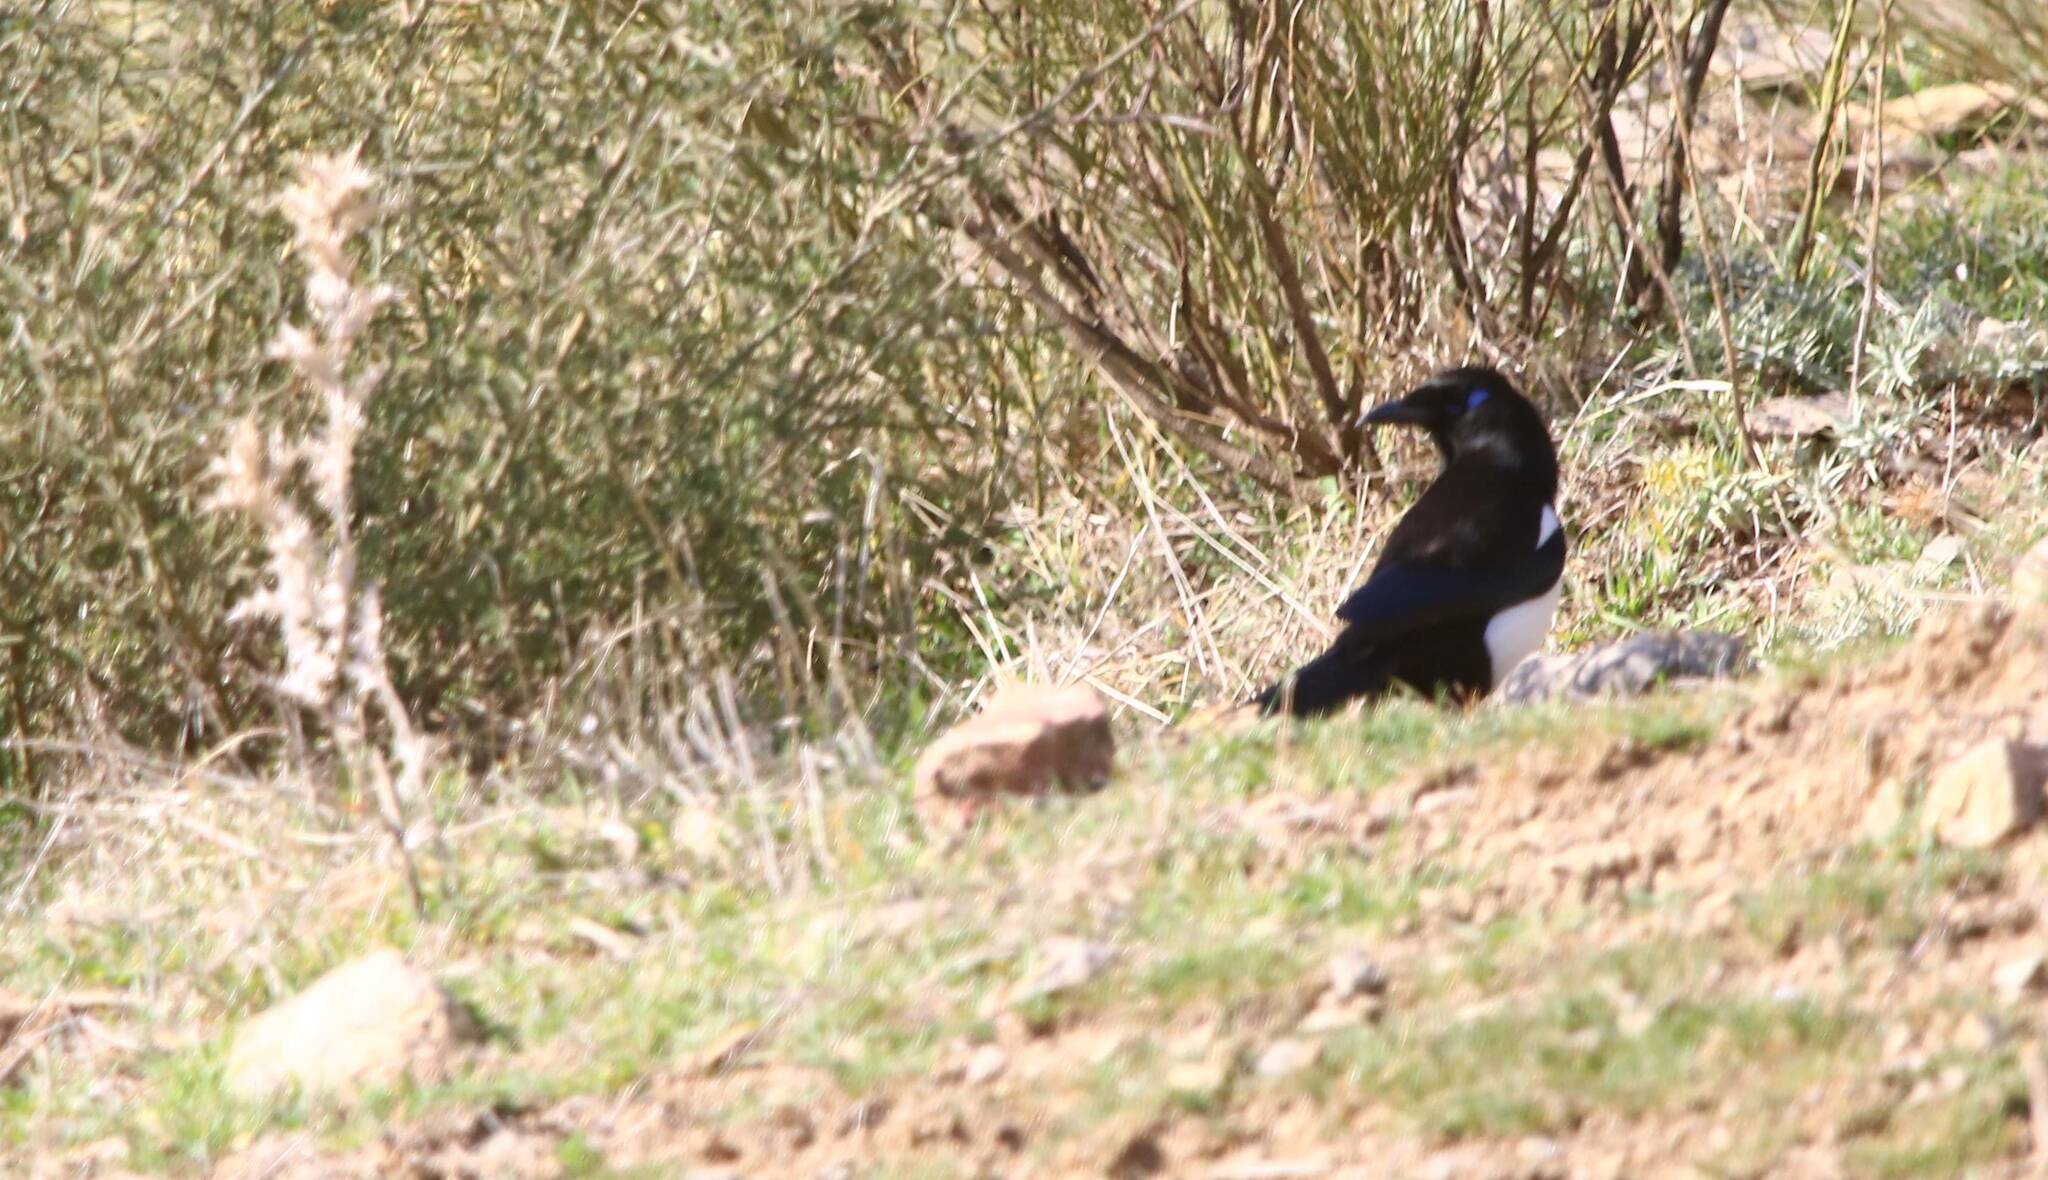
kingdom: Animalia
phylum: Chordata
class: Aves
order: Passeriformes
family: Corvidae
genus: Pica
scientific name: Pica mauritanica
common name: Maghreb magpie
